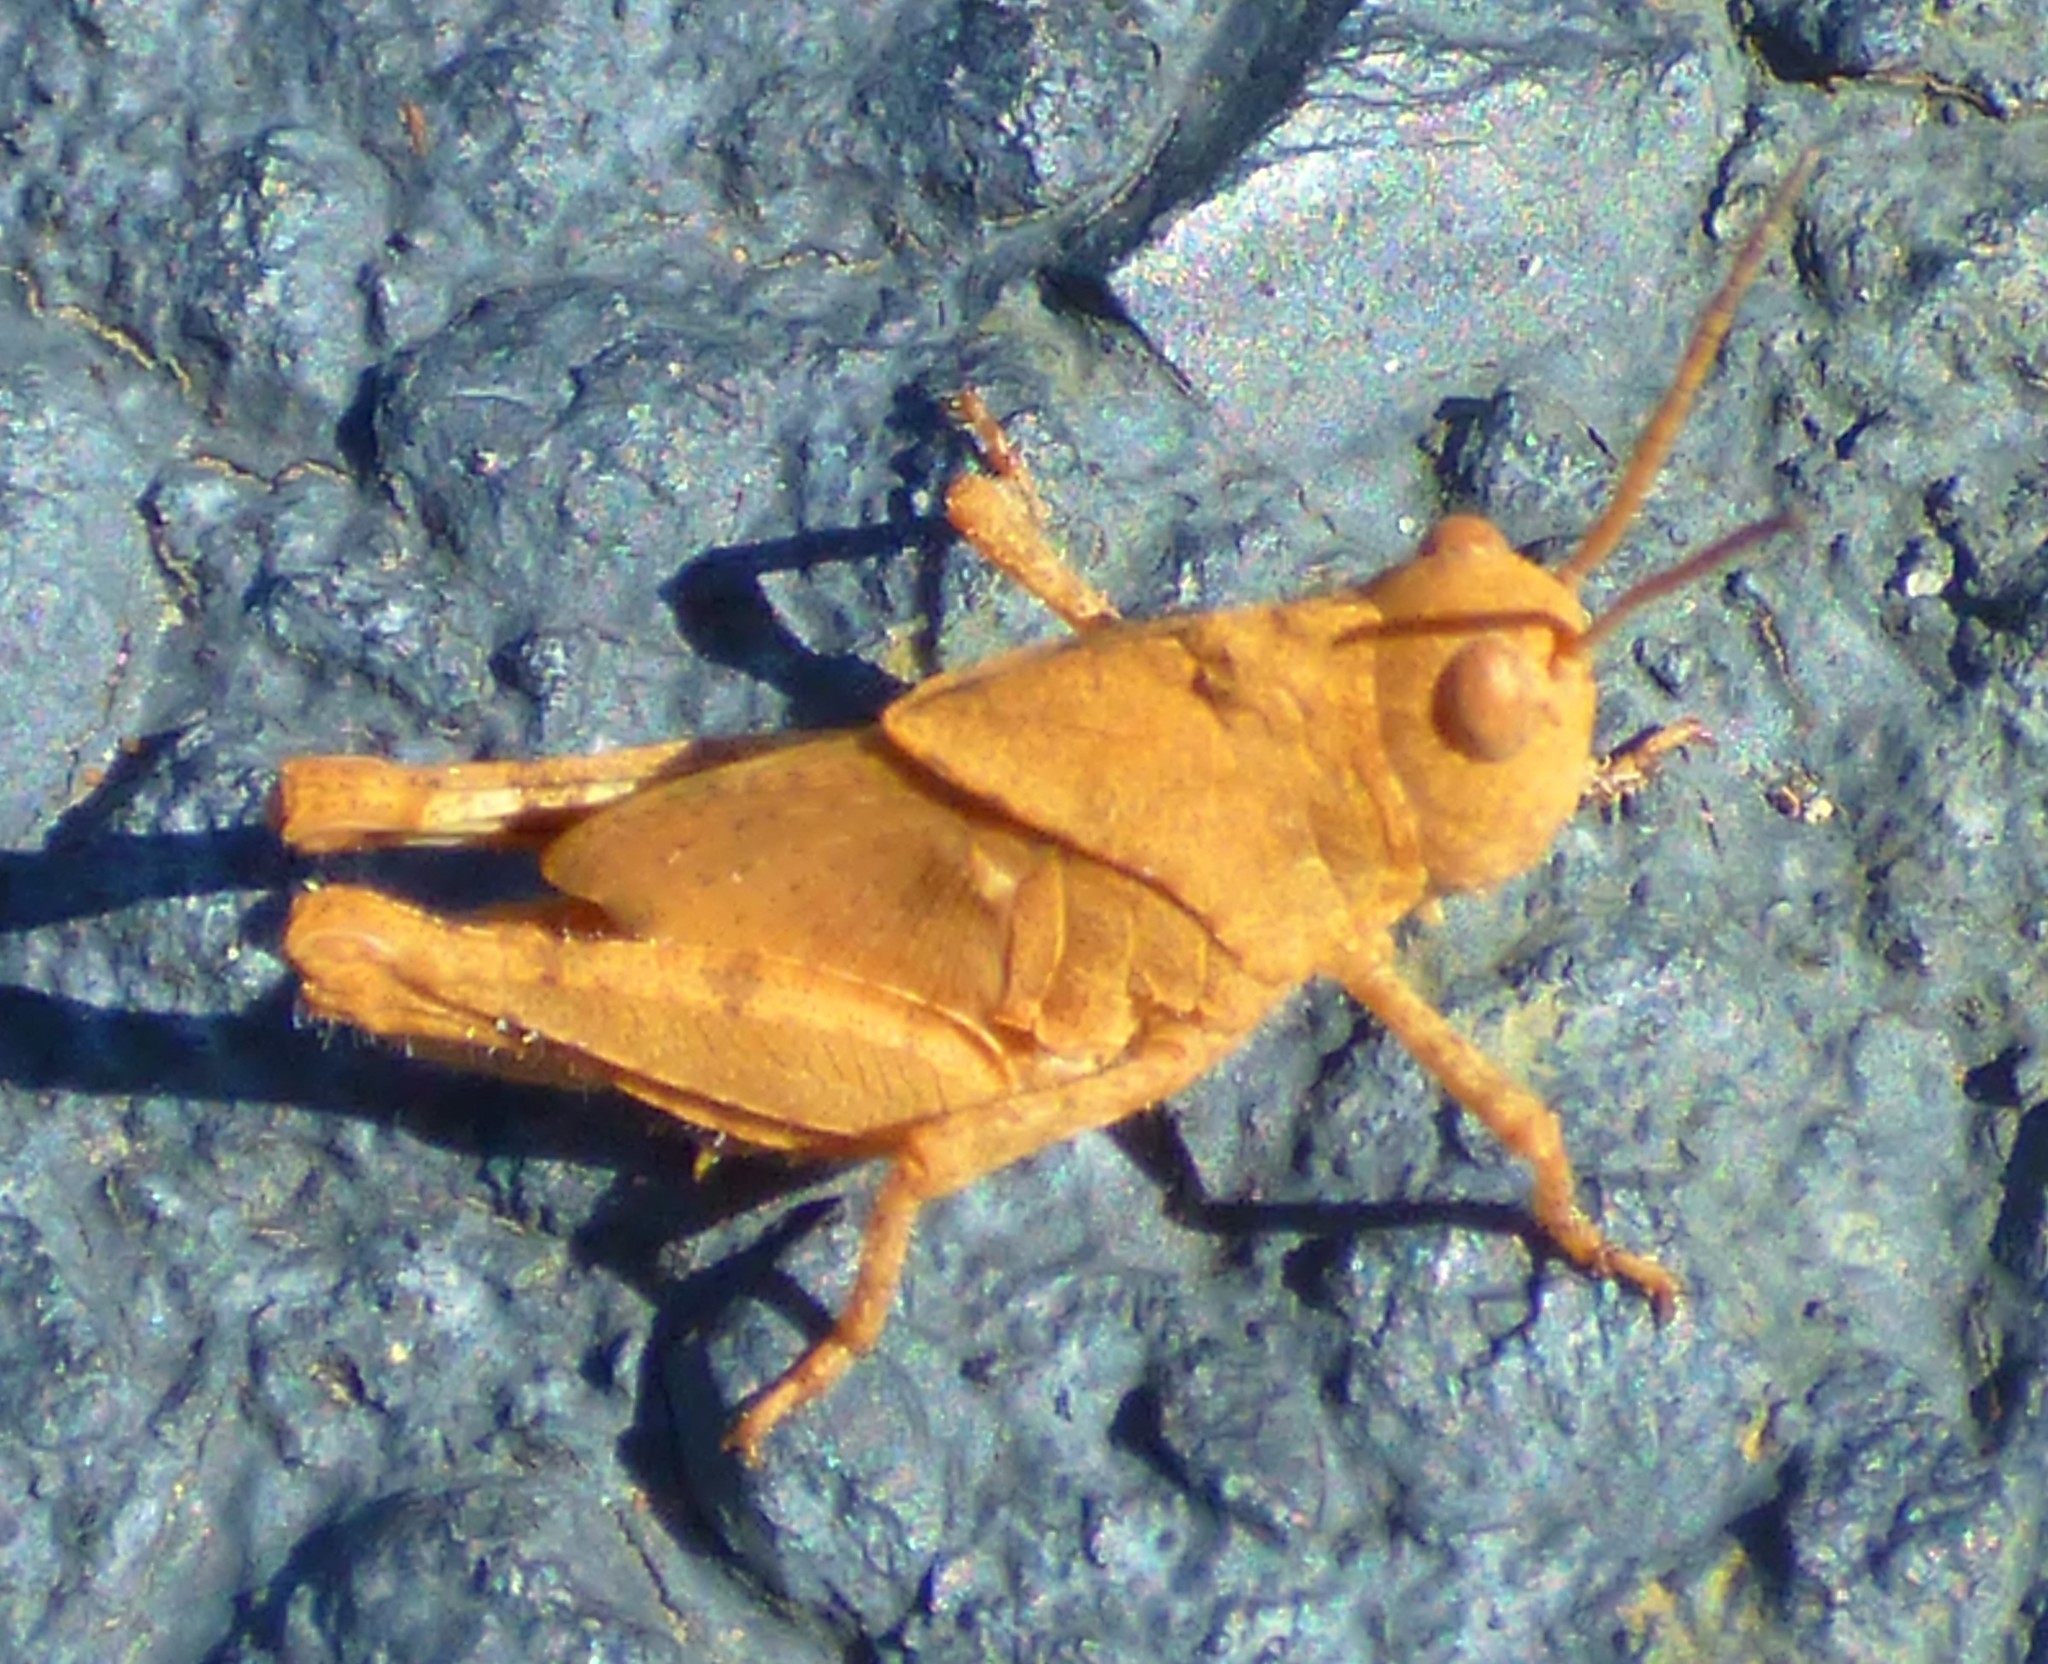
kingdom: Animalia
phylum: Arthropoda
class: Insecta
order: Orthoptera
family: Acrididae
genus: Dissosteira
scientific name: Dissosteira carolina
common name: Carolina grasshopper
